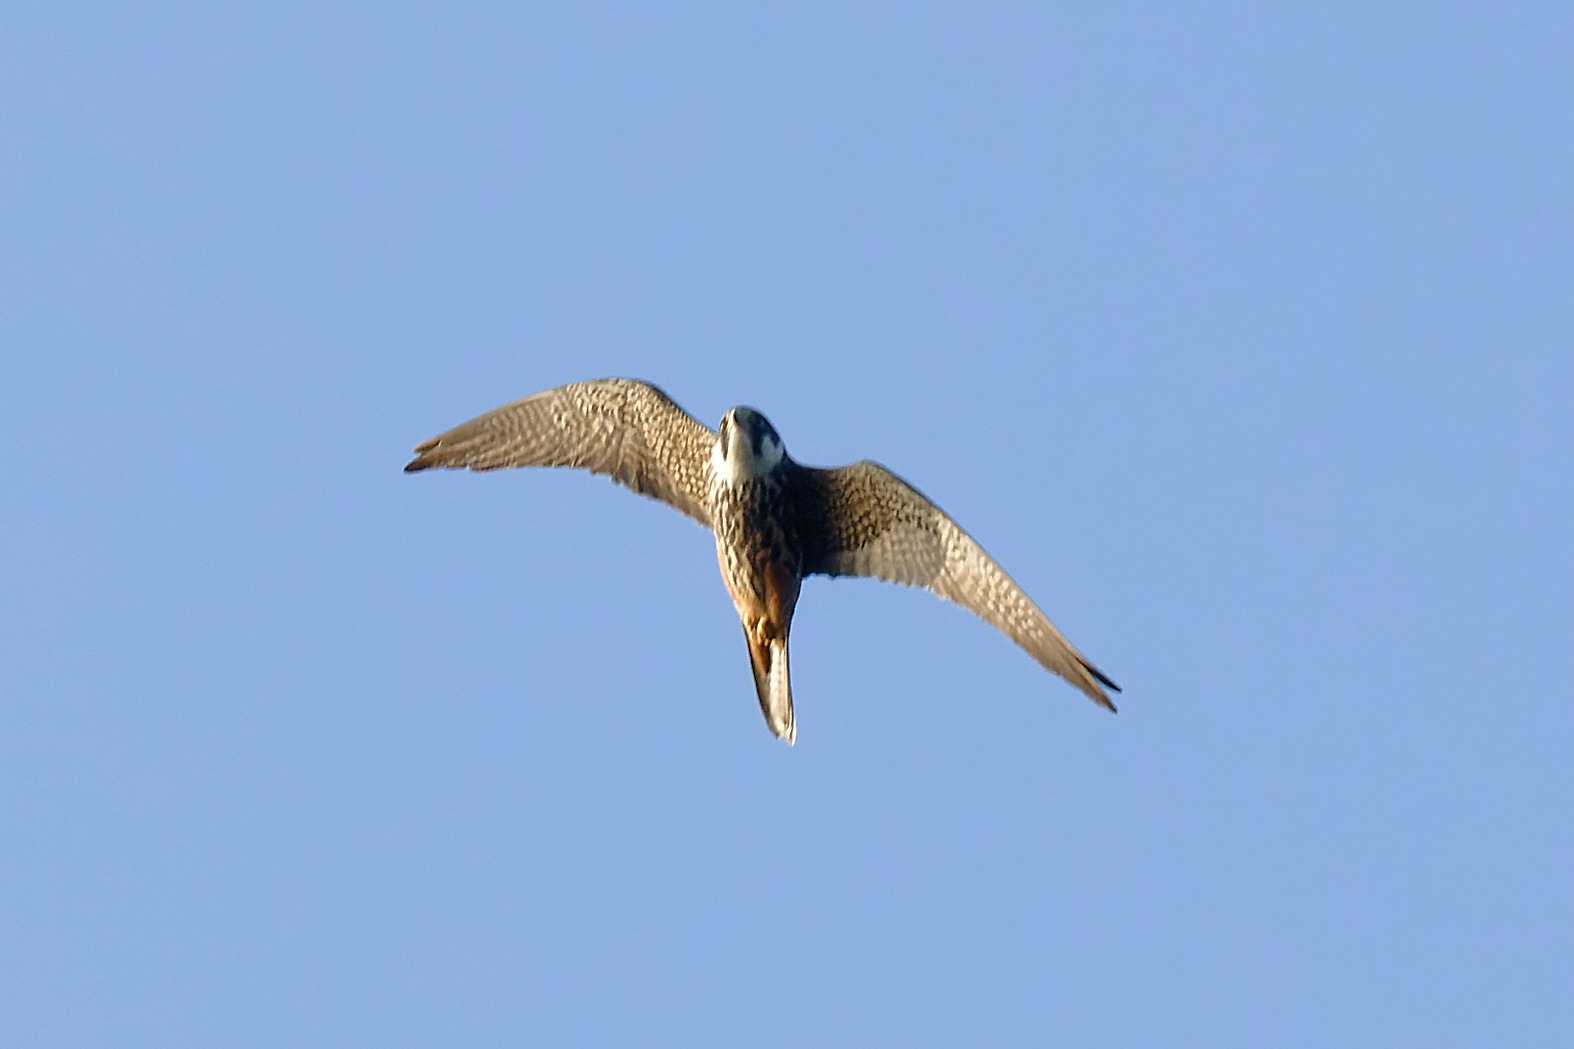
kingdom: Animalia
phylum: Chordata
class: Aves
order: Falconiformes
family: Falconidae
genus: Falco
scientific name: Falco subbuteo
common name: Eurasian hobby
